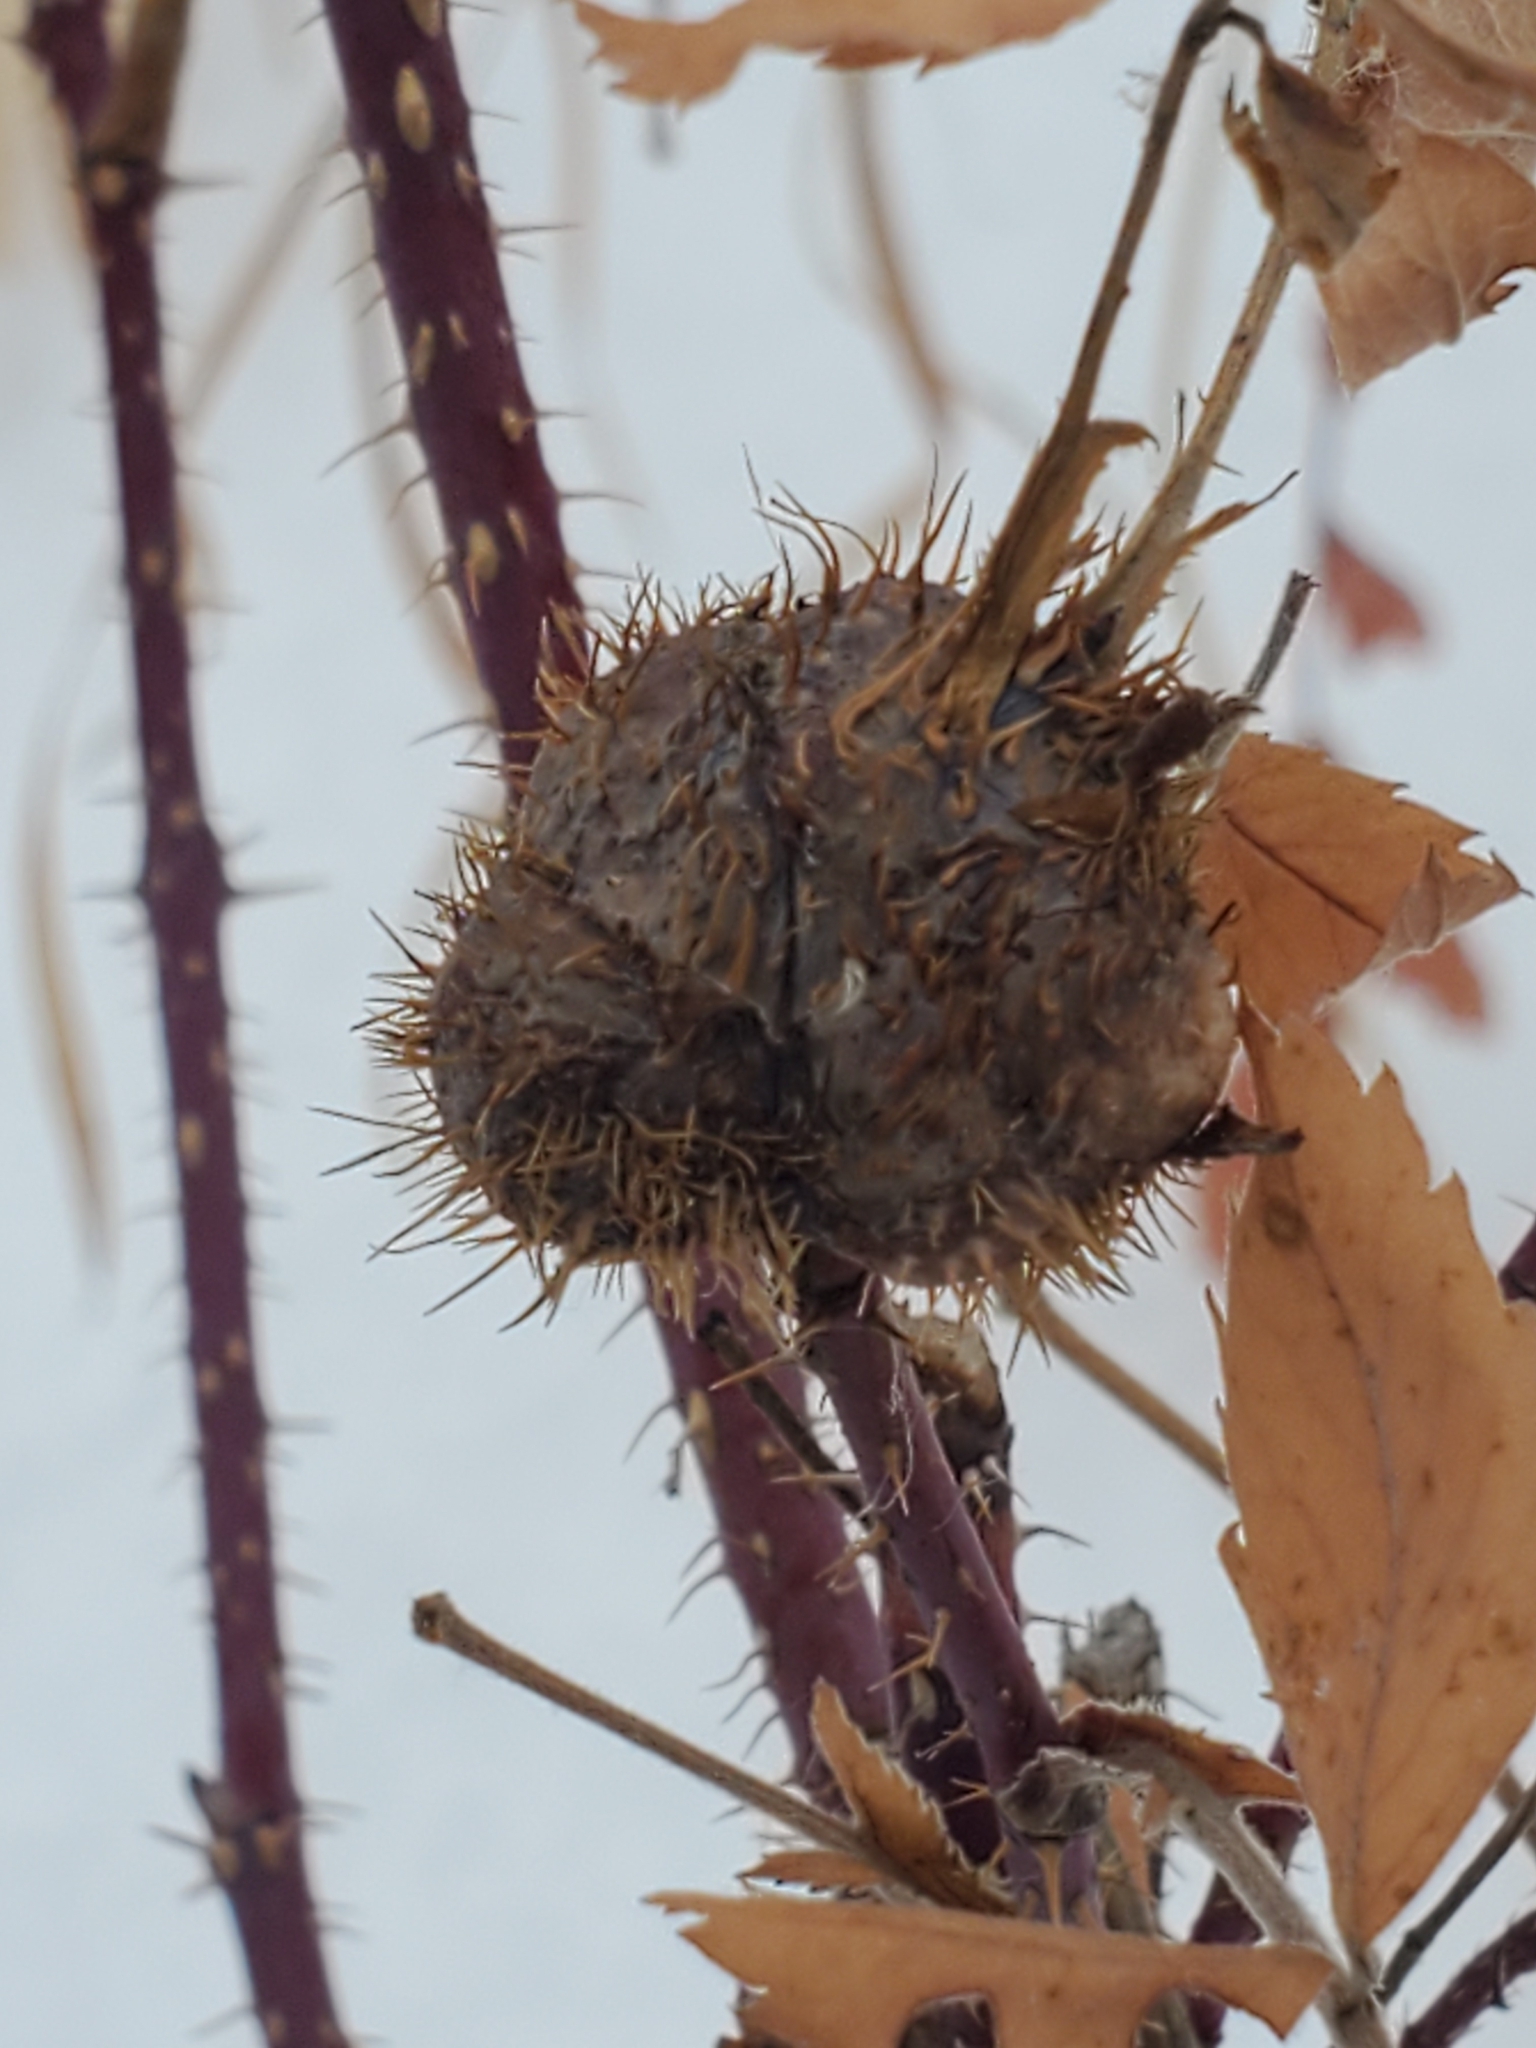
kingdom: Animalia
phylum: Arthropoda
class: Insecta
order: Hymenoptera
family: Cynipidae
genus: Diplolepis
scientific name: Diplolepis spinosa
